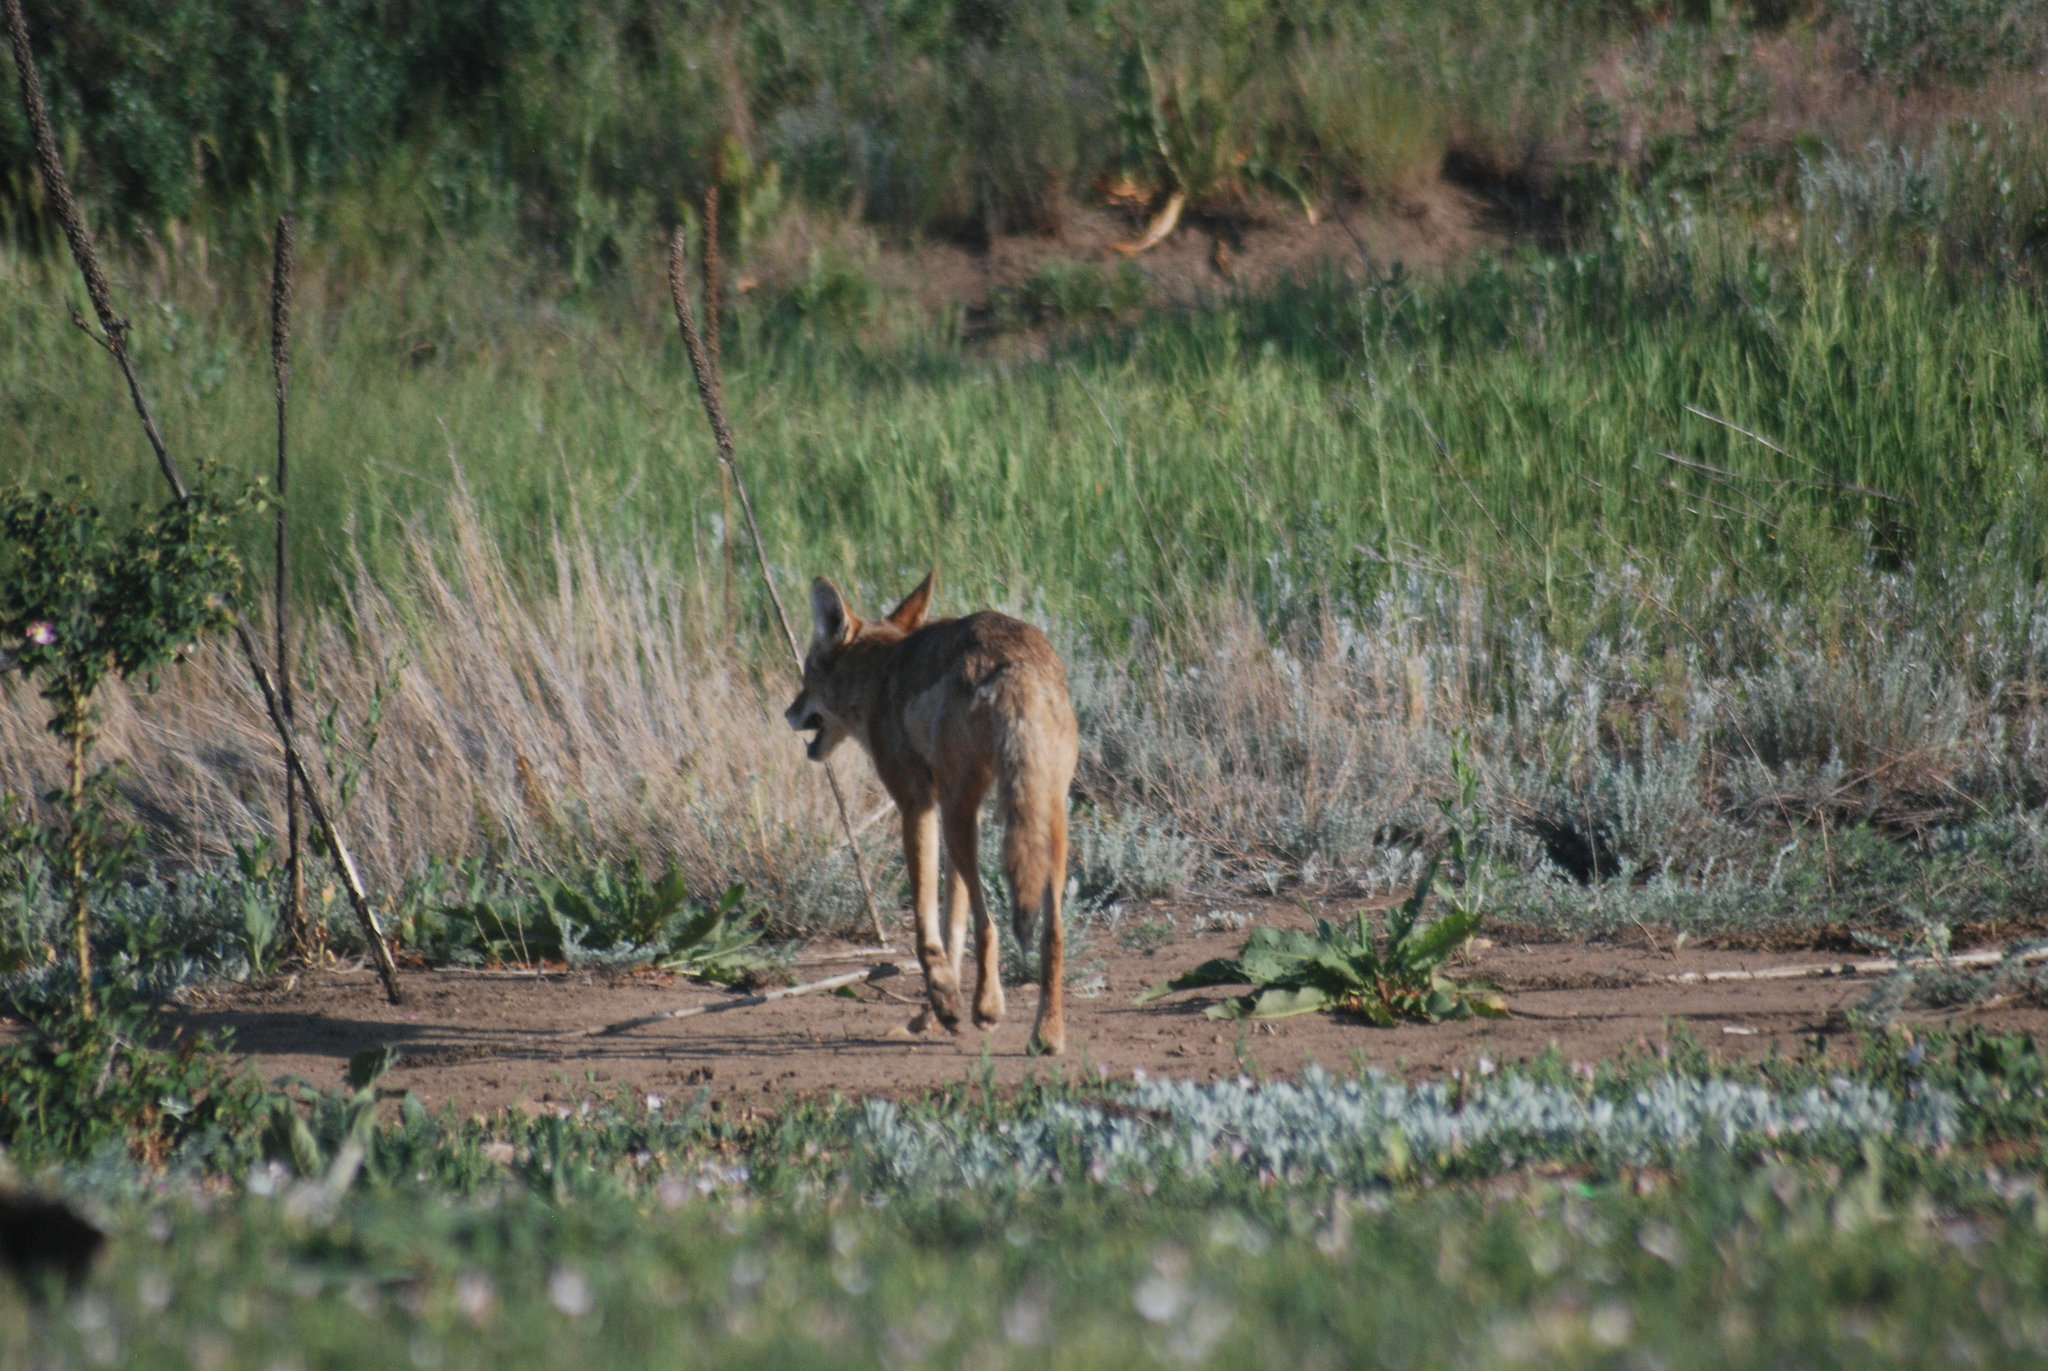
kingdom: Plantae
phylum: Tracheophyta
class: Magnoliopsida
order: Lamiales
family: Scrophulariaceae
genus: Verbascum
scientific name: Verbascum thapsus
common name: Common mullein
